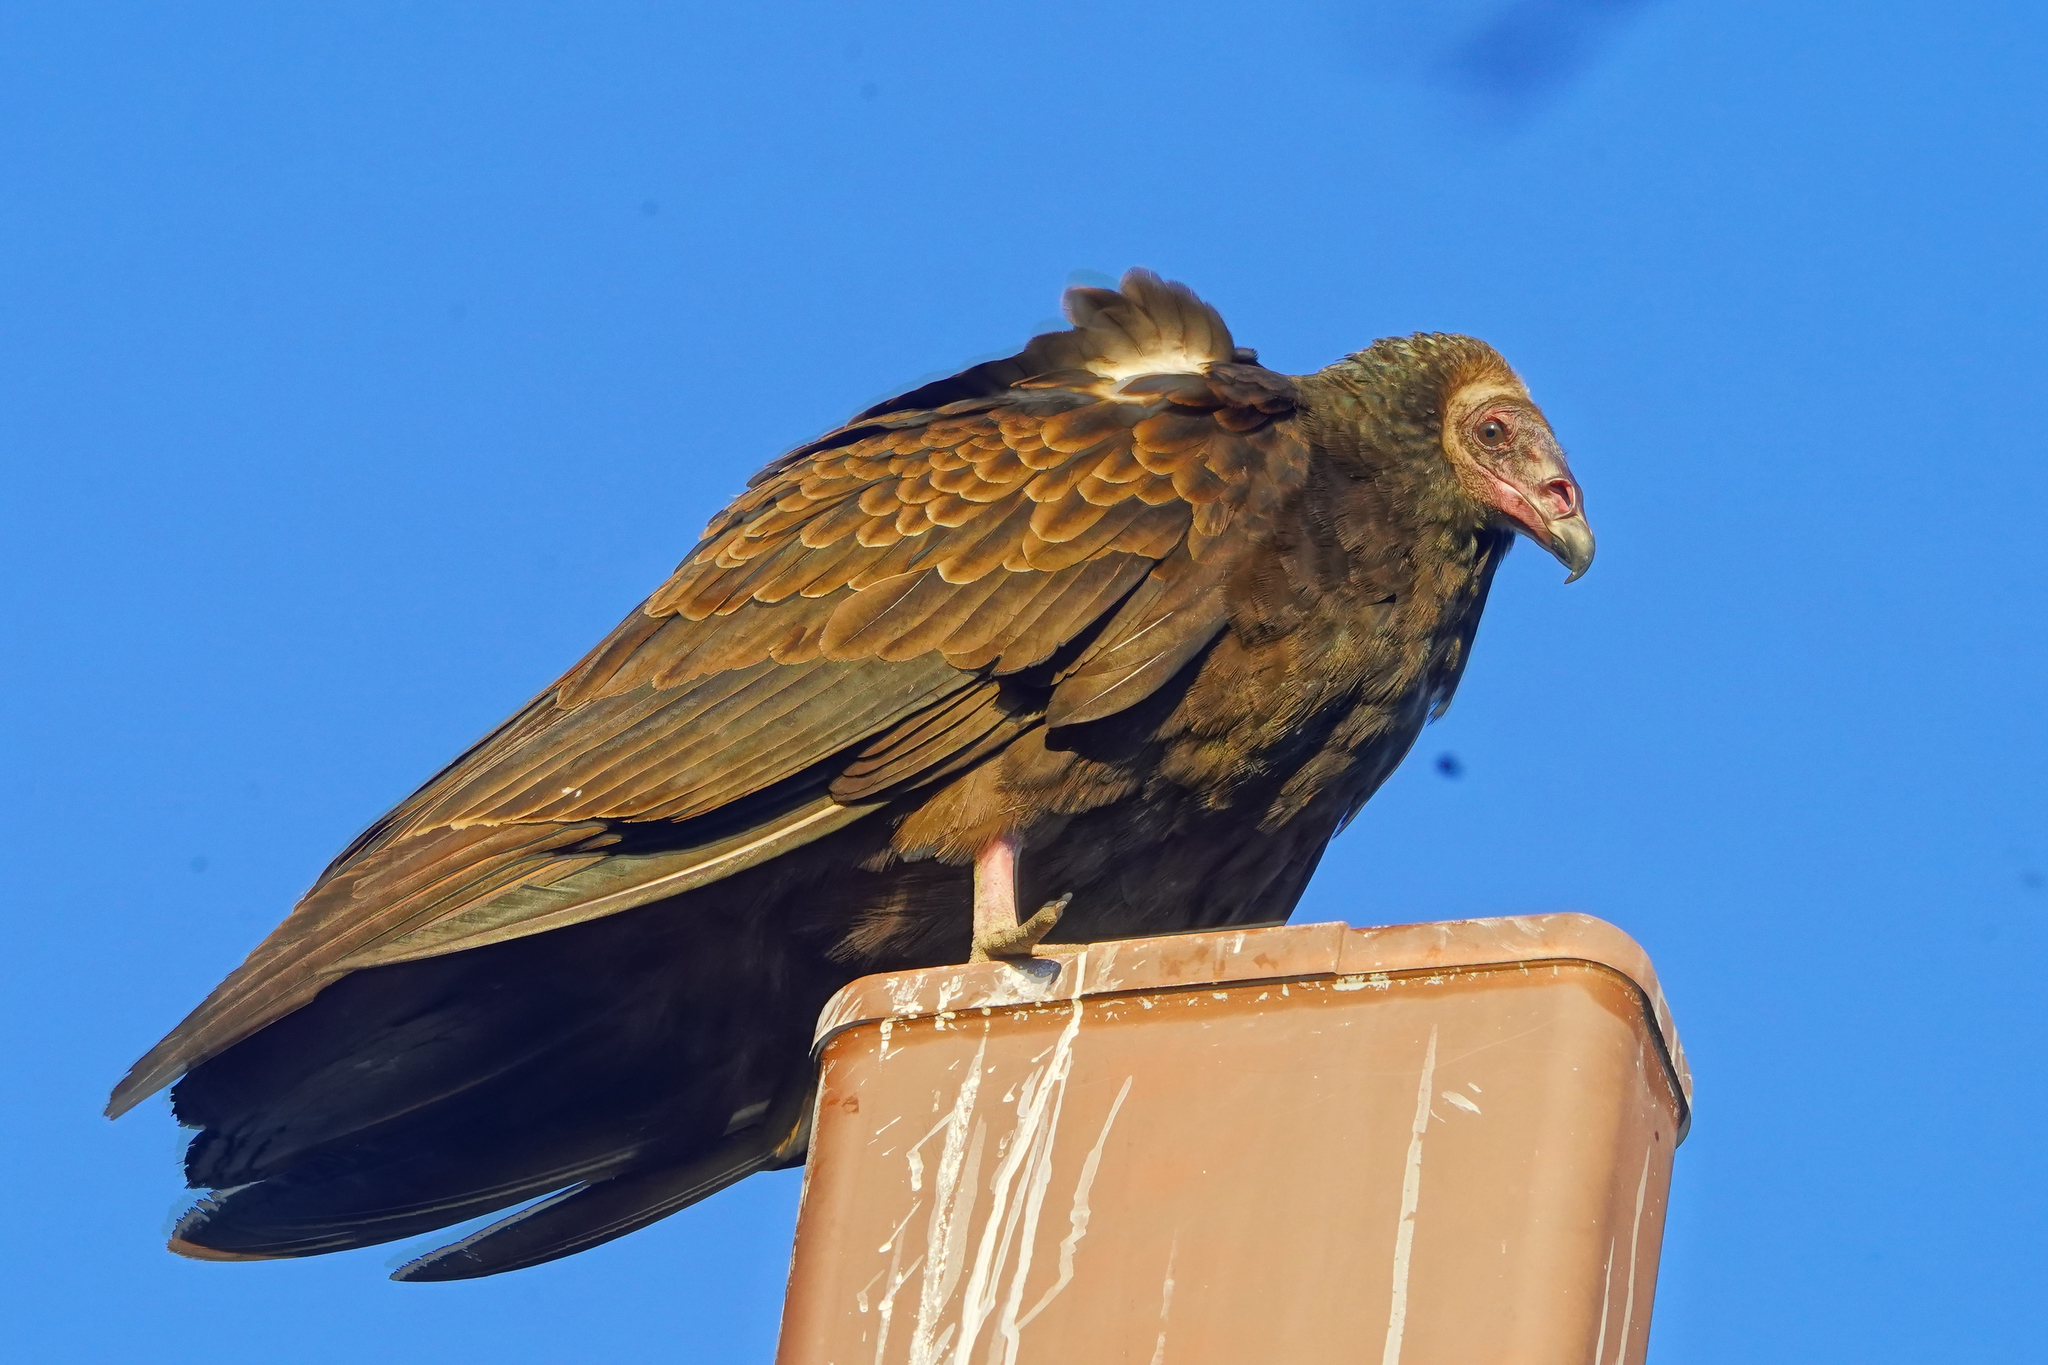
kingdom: Animalia
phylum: Chordata
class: Aves
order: Accipitriformes
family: Cathartidae
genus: Cathartes
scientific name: Cathartes aura
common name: Turkey vulture
